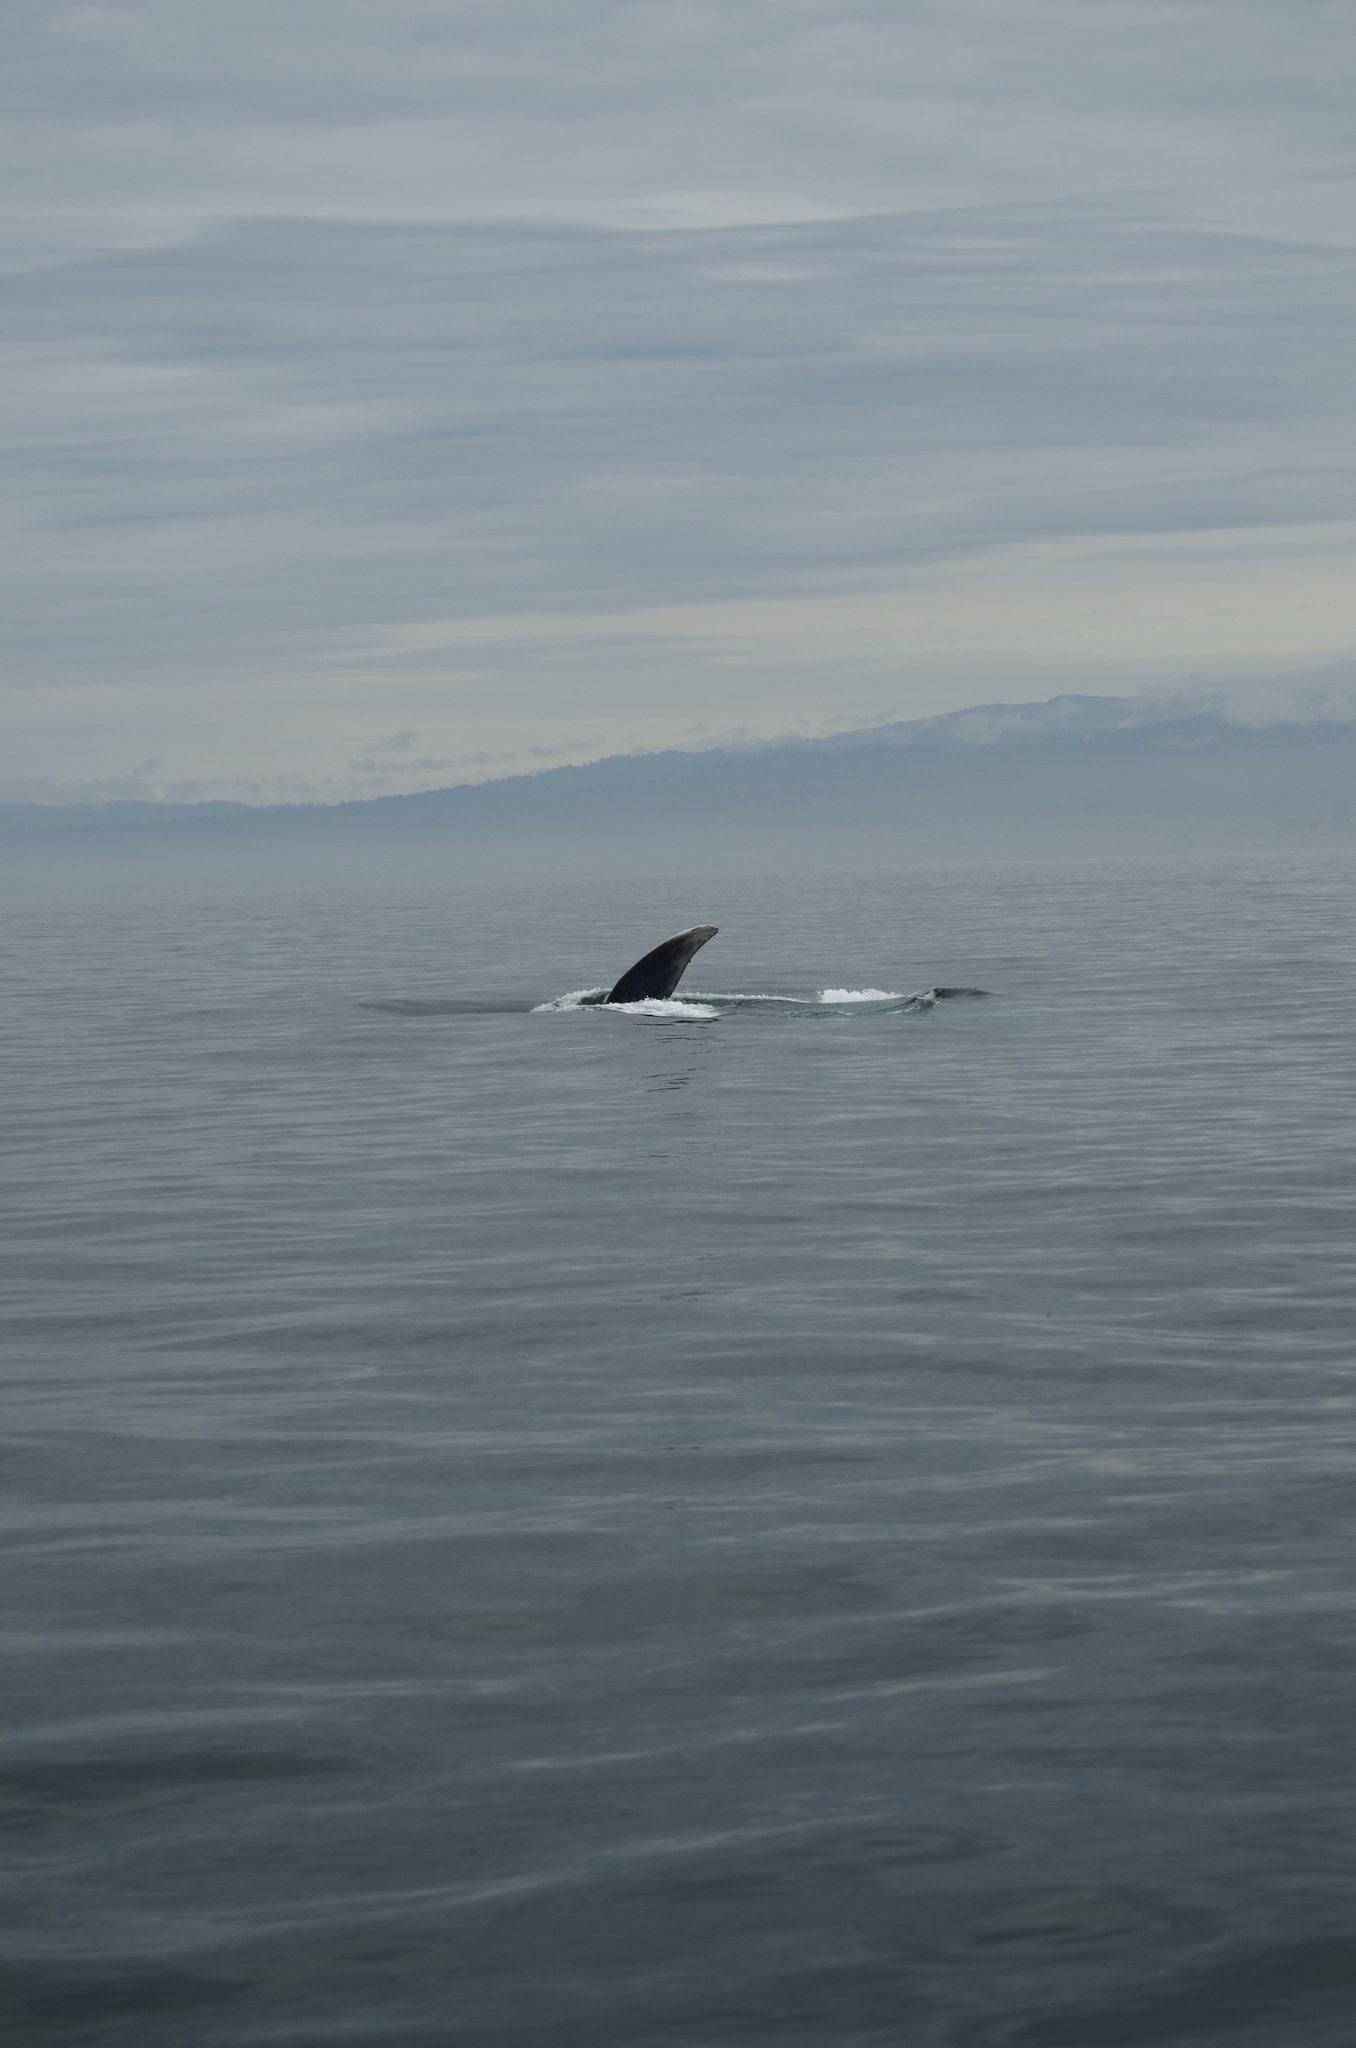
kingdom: Animalia
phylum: Chordata
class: Mammalia
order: Cetacea
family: Balaenopteridae
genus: Balaenoptera
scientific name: Balaenoptera musculus
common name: Blue whale
